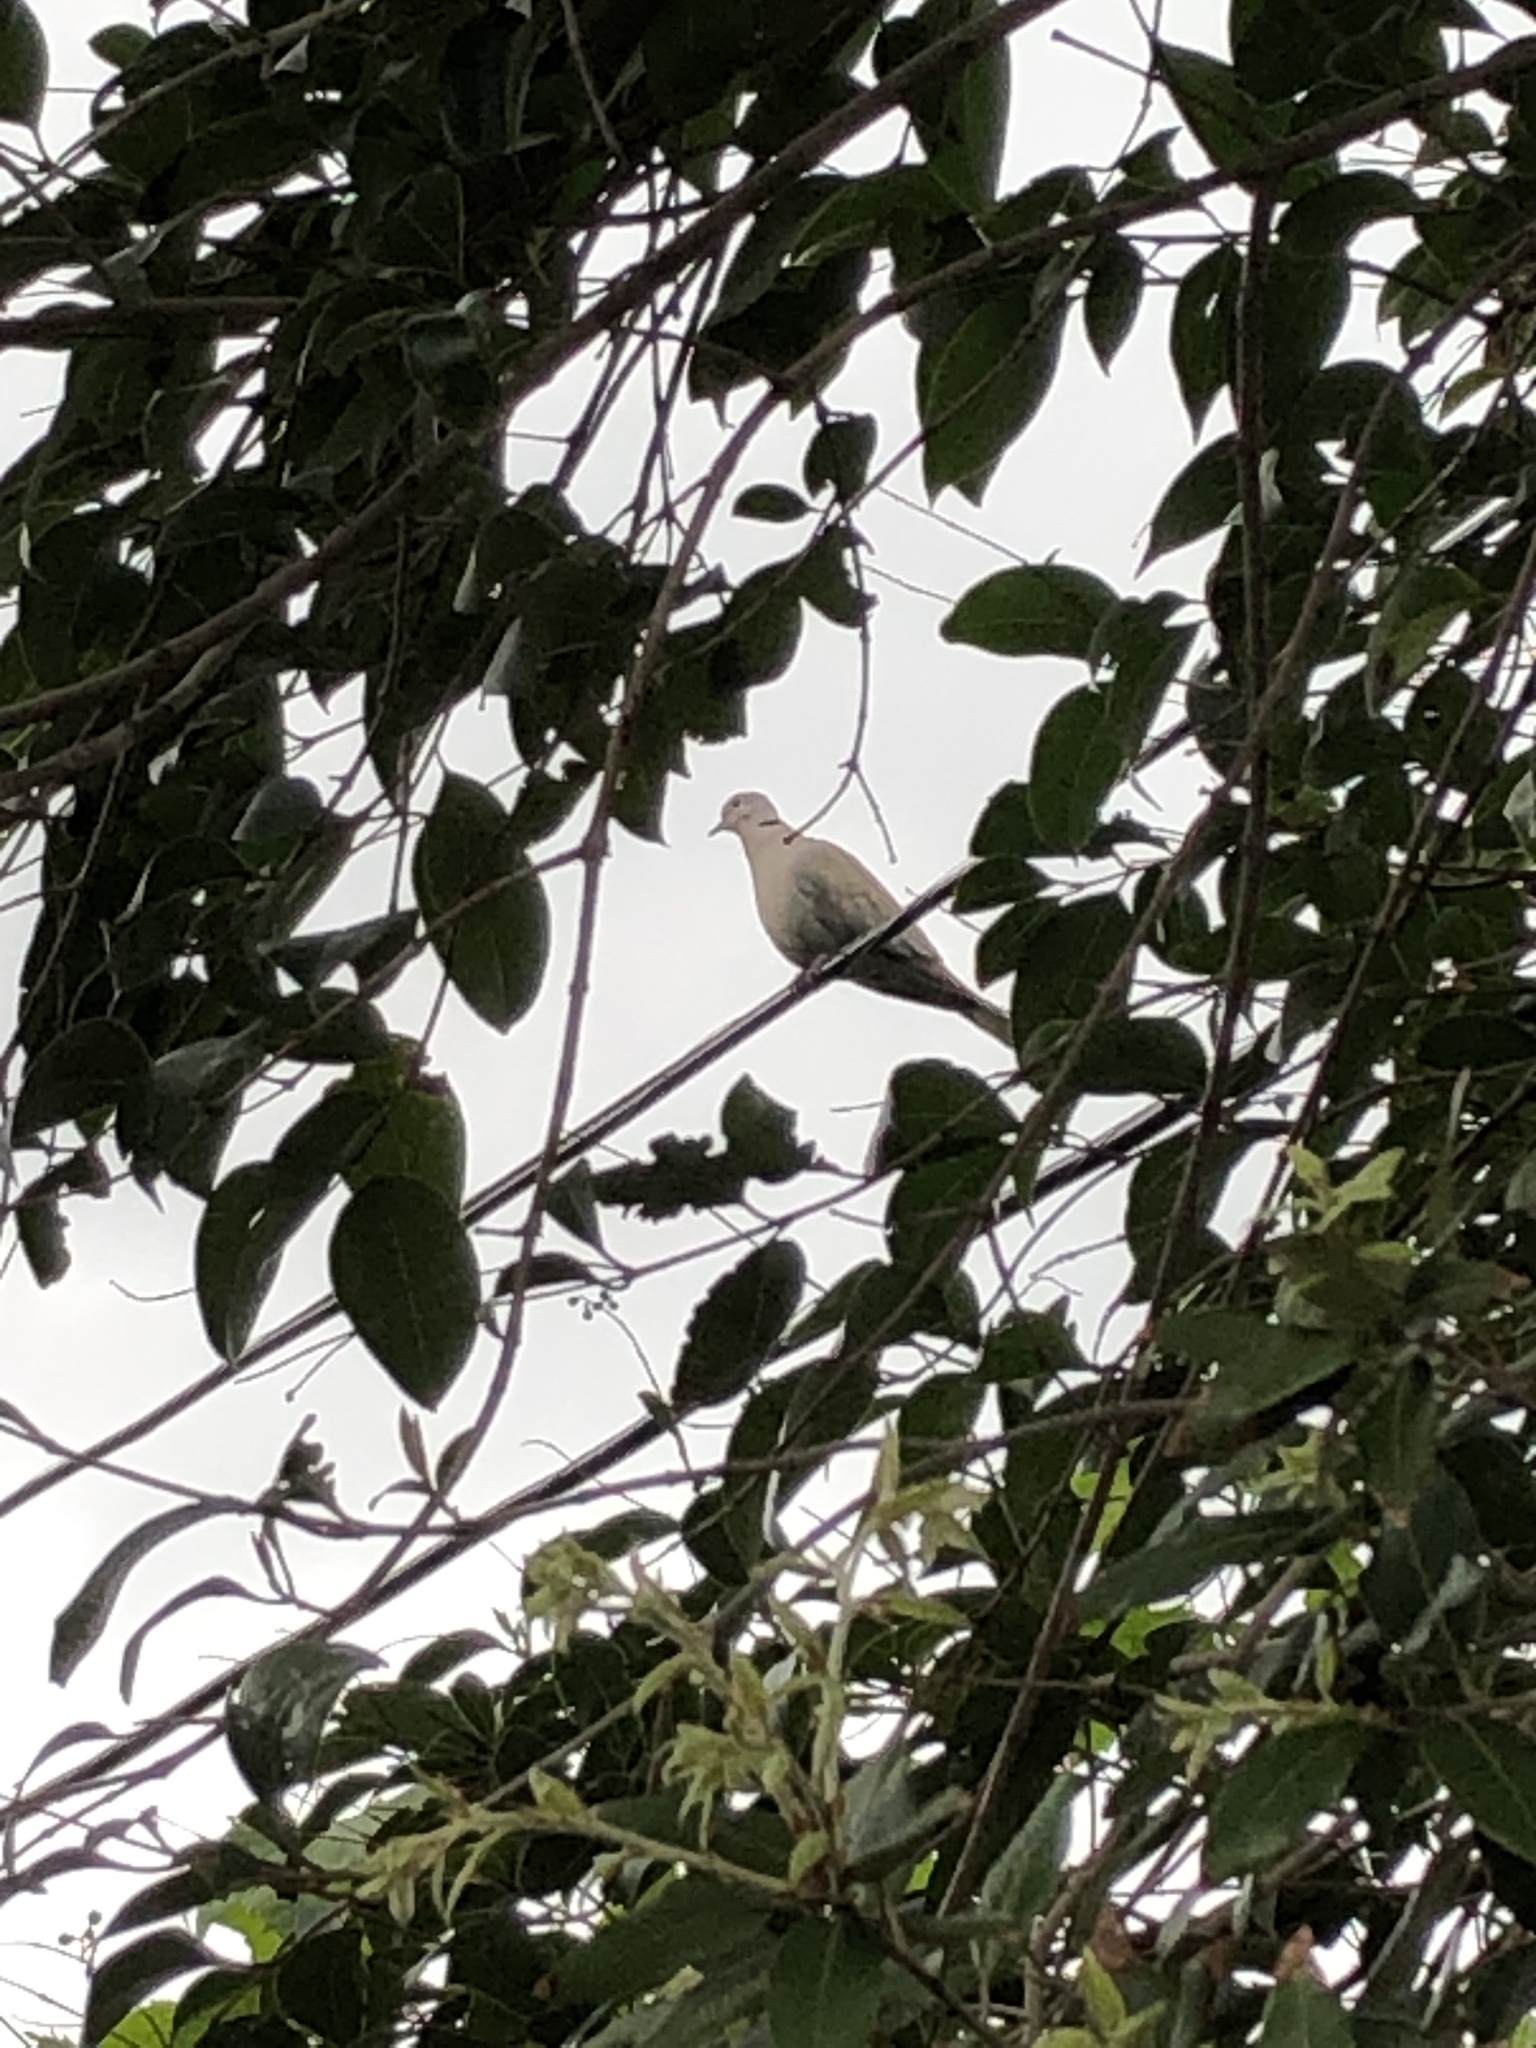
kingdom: Animalia
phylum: Chordata
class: Aves
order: Columbiformes
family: Columbidae
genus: Streptopelia
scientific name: Streptopelia decaocto
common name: Eurasian collared dove
